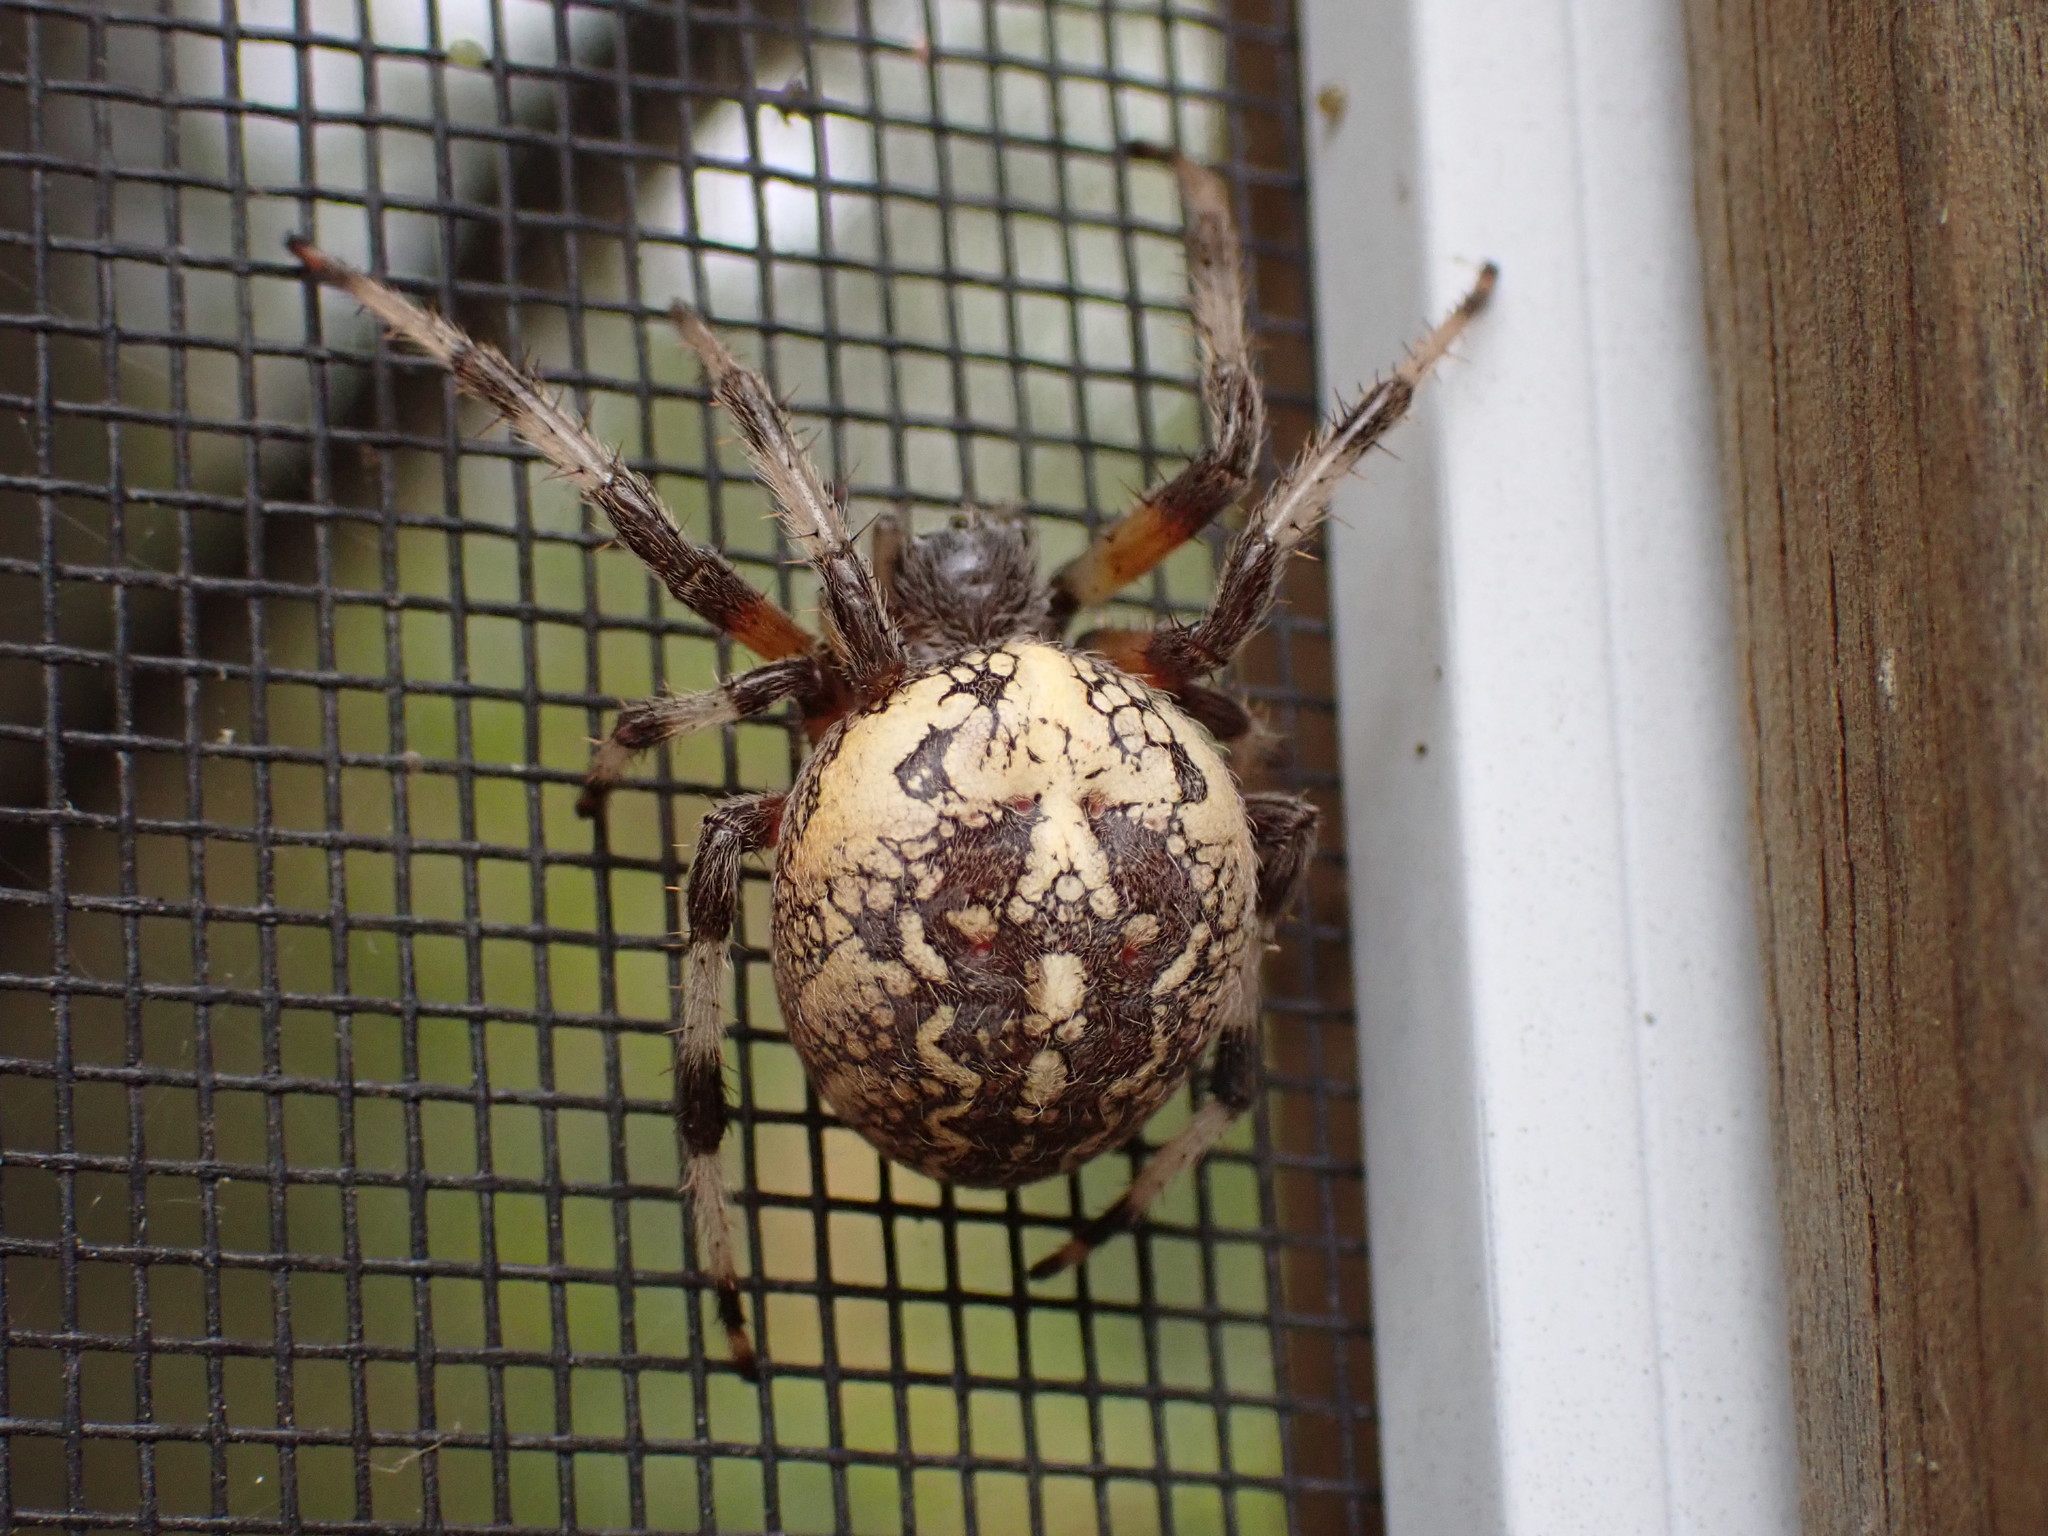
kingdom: Animalia
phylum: Arthropoda
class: Arachnida
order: Araneae
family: Araneidae
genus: Araneus
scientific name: Araneus marmoreus
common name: Marbled orbweaver
